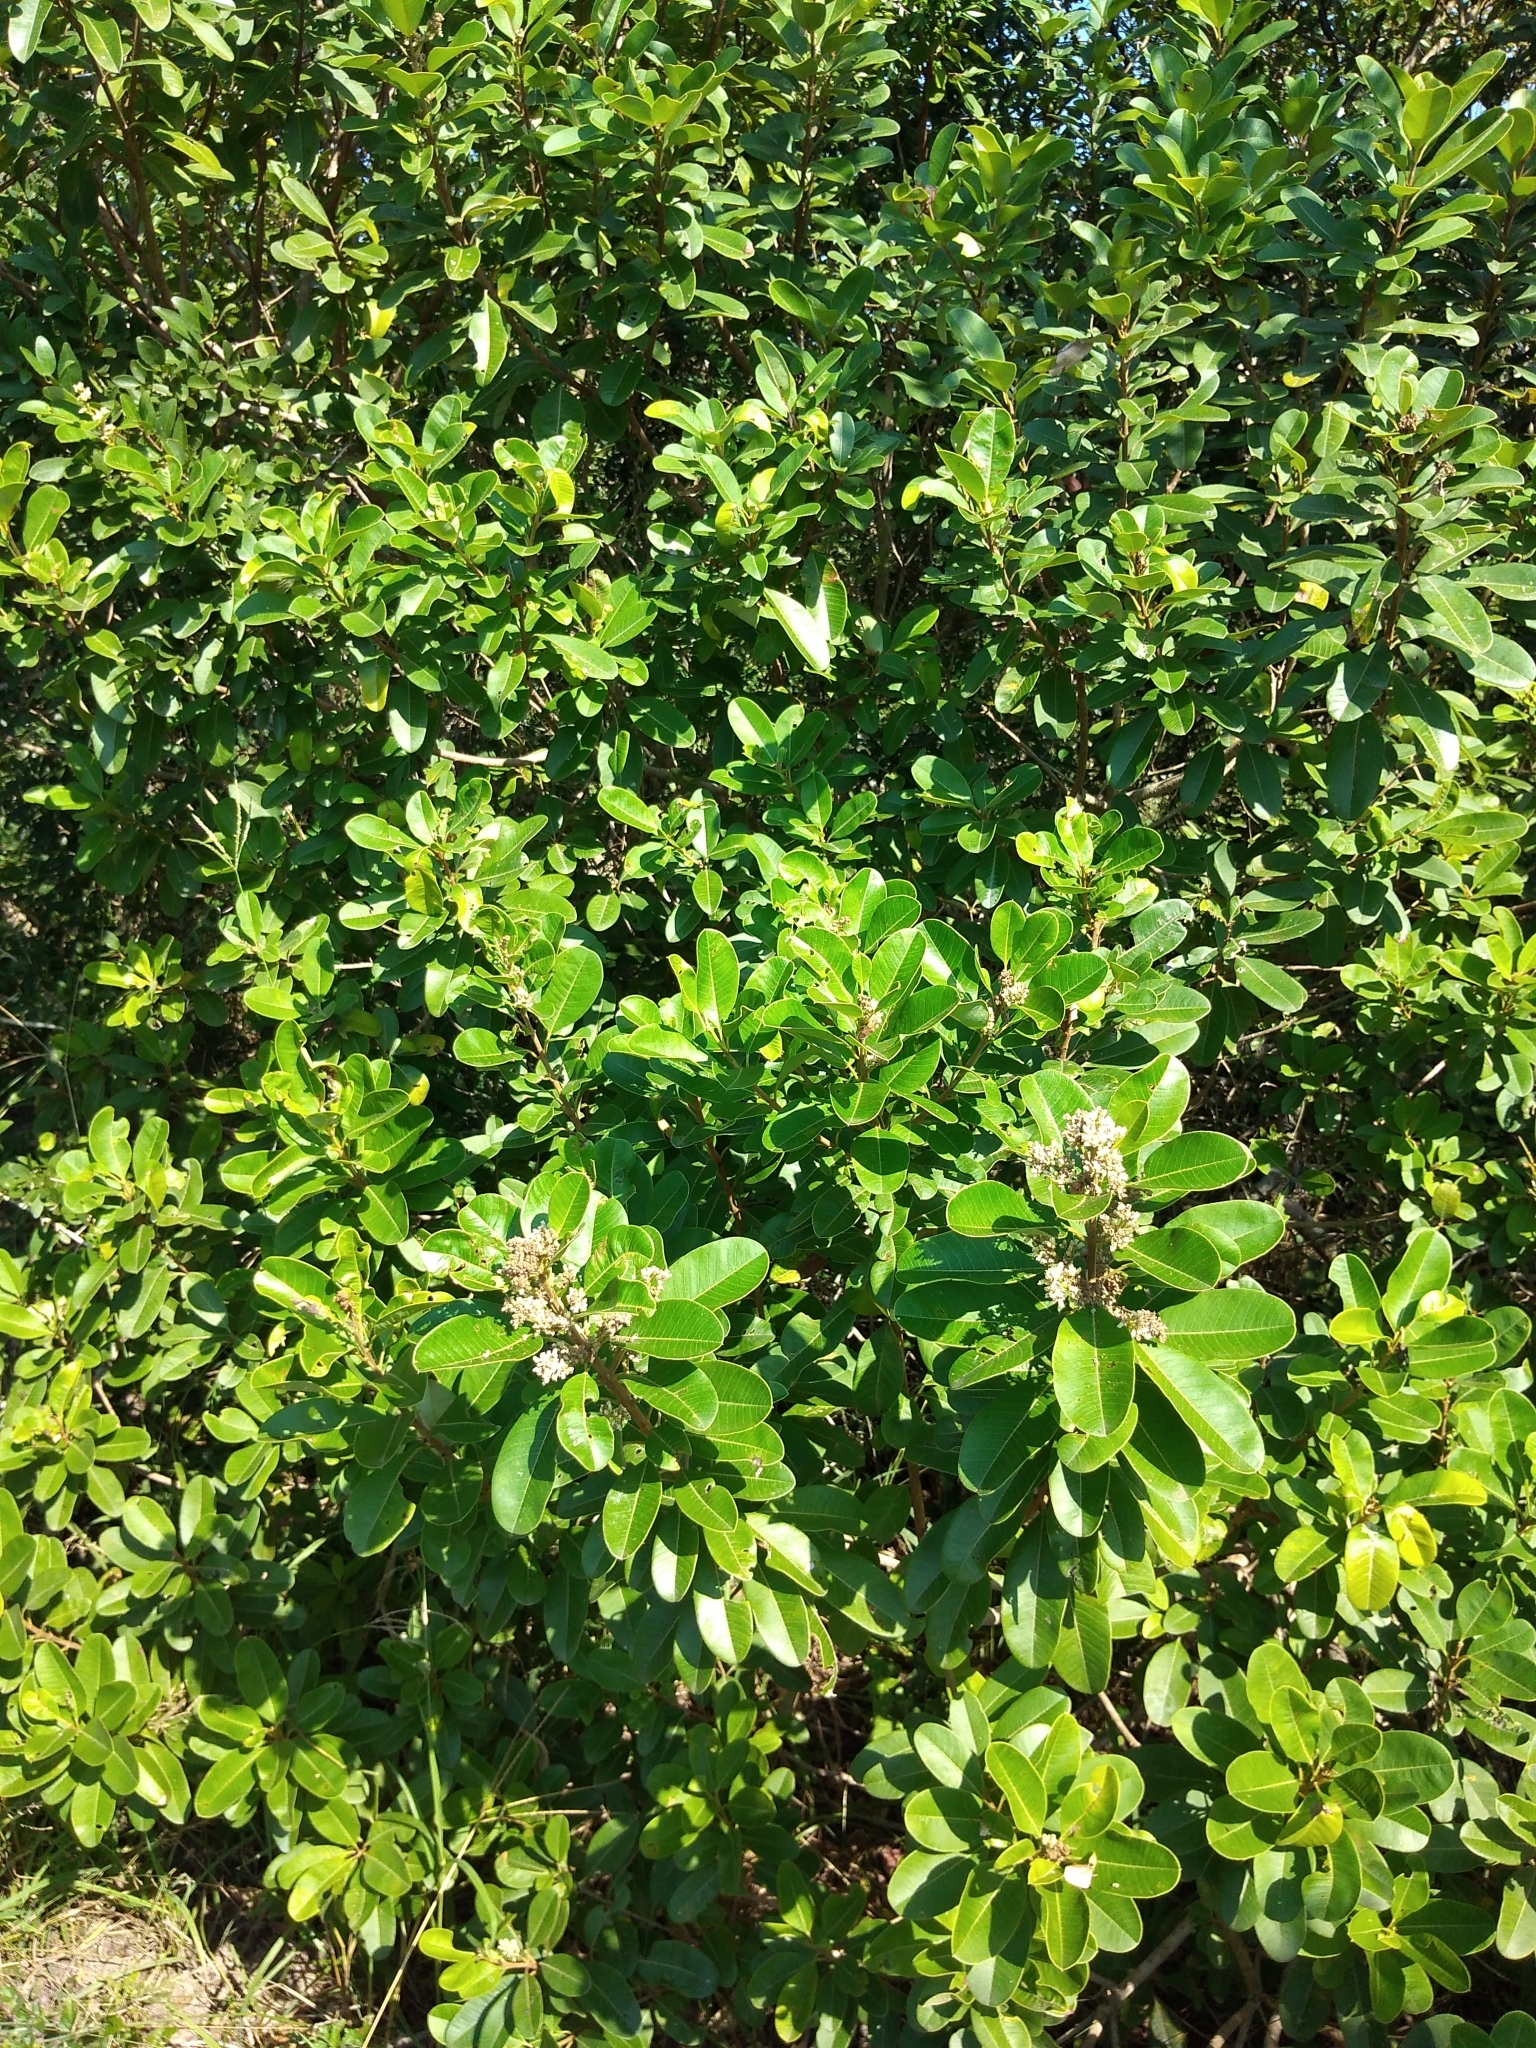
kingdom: Plantae
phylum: Tracheophyta
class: Magnoliopsida
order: Sapindales
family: Anacardiaceae
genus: Ozoroa
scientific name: Ozoroa obovata
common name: Broad-leaved resin tree
